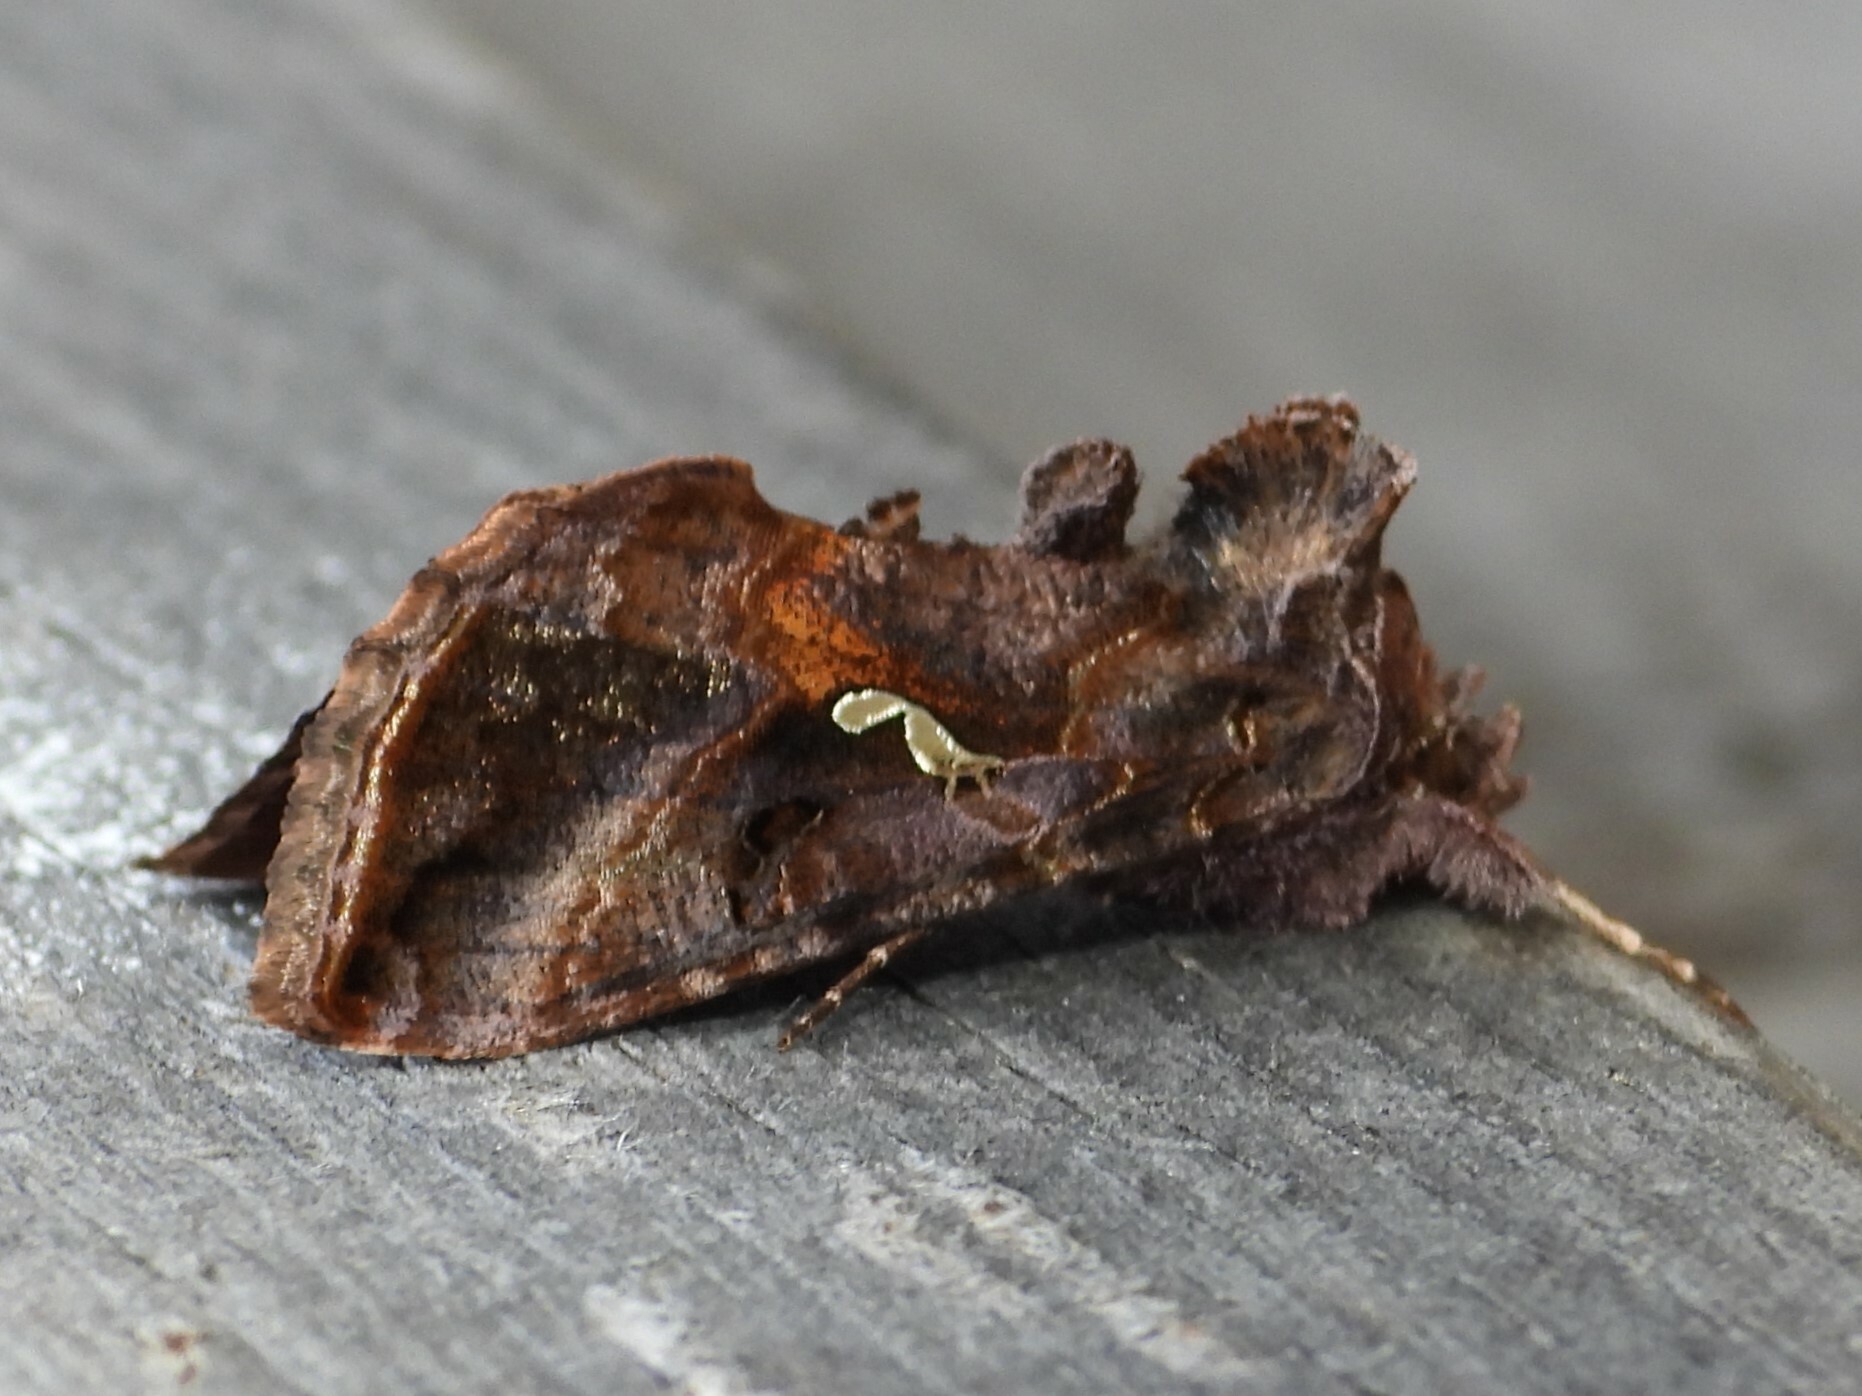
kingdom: Animalia
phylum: Arthropoda
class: Insecta
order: Lepidoptera
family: Noctuidae
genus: Autographa
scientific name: Autographa precationis
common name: Common looper moth
